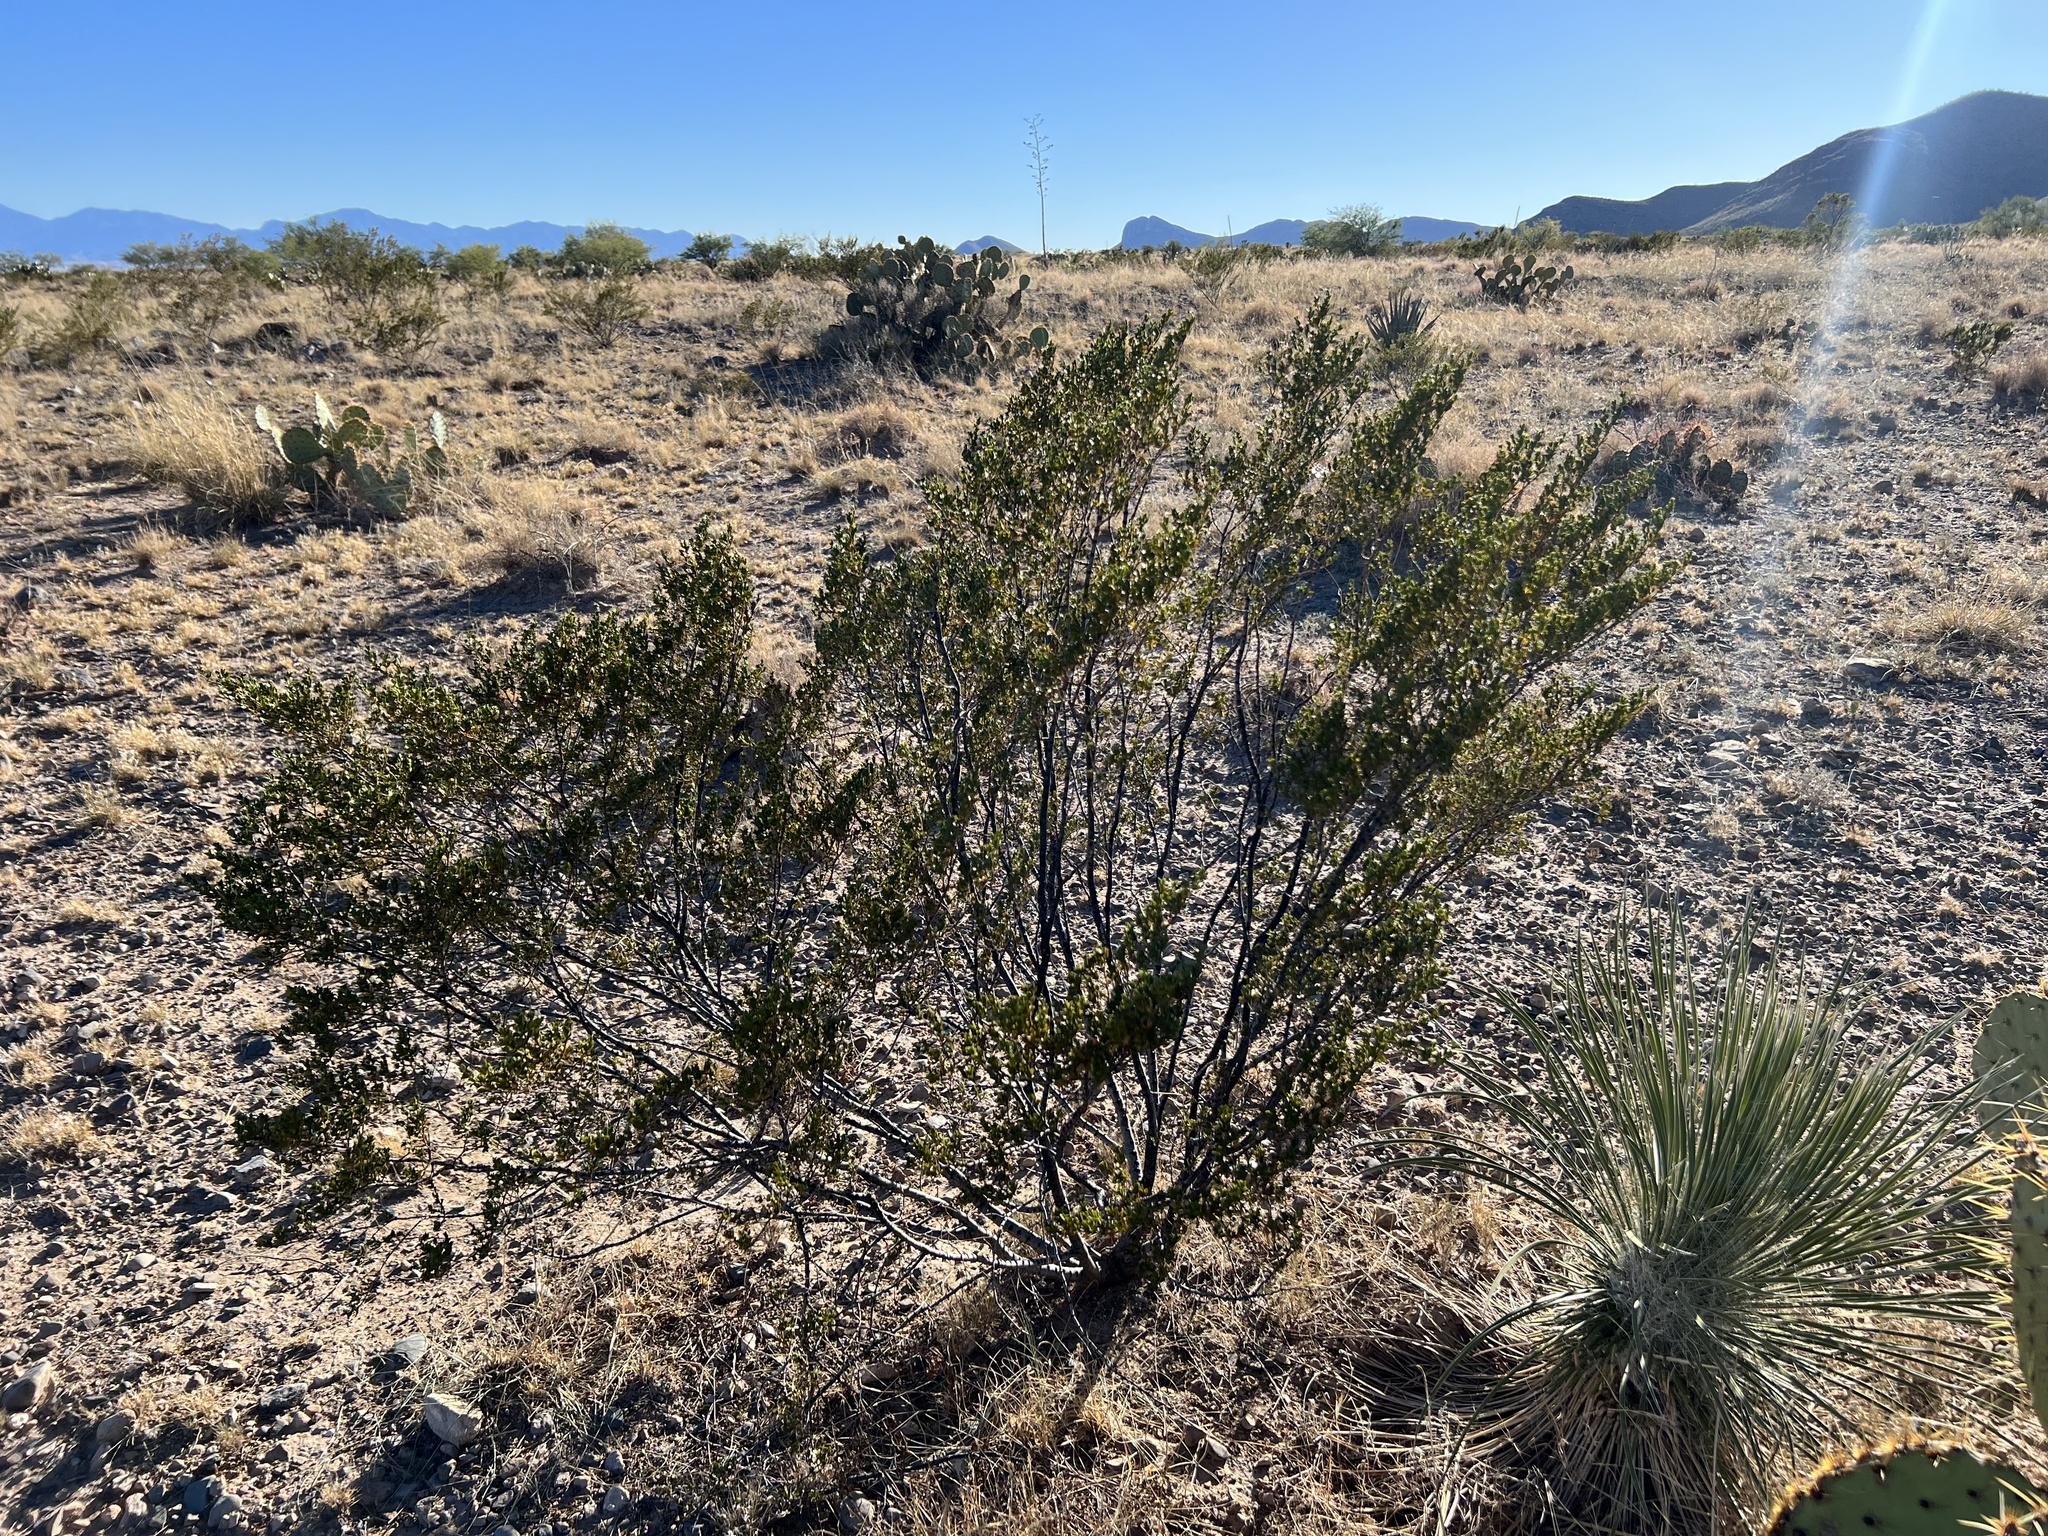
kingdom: Plantae
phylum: Tracheophyta
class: Magnoliopsida
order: Zygophyllales
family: Zygophyllaceae
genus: Larrea
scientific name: Larrea tridentata
